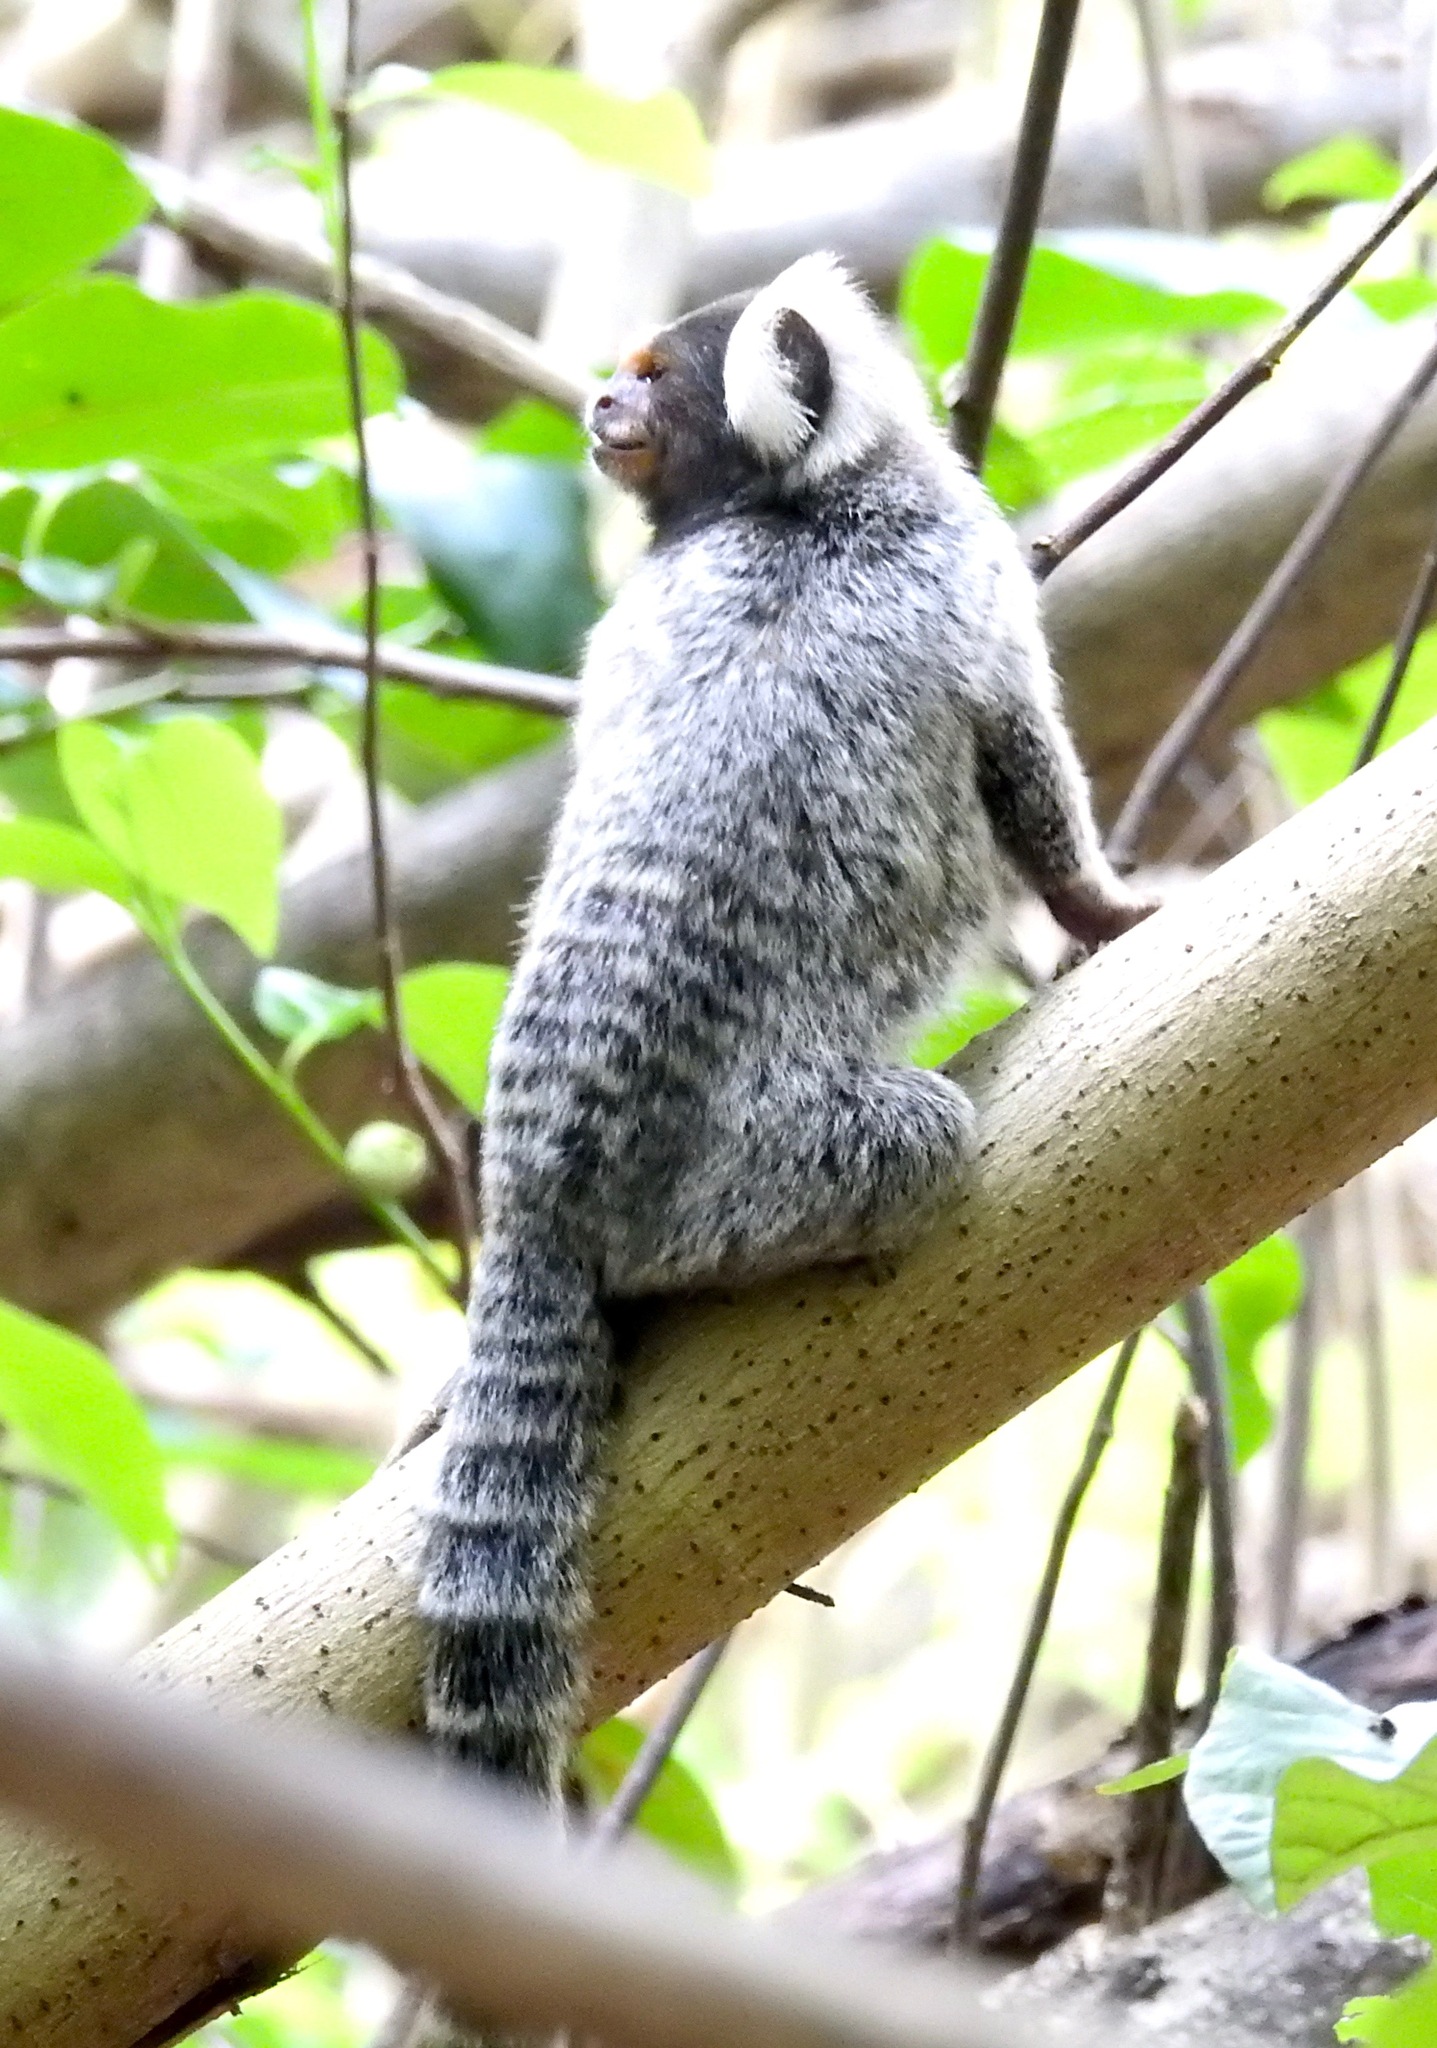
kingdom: Animalia
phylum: Chordata
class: Mammalia
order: Primates
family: Callitrichidae
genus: Callithrix
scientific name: Callithrix jacchus
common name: Common marmoset
